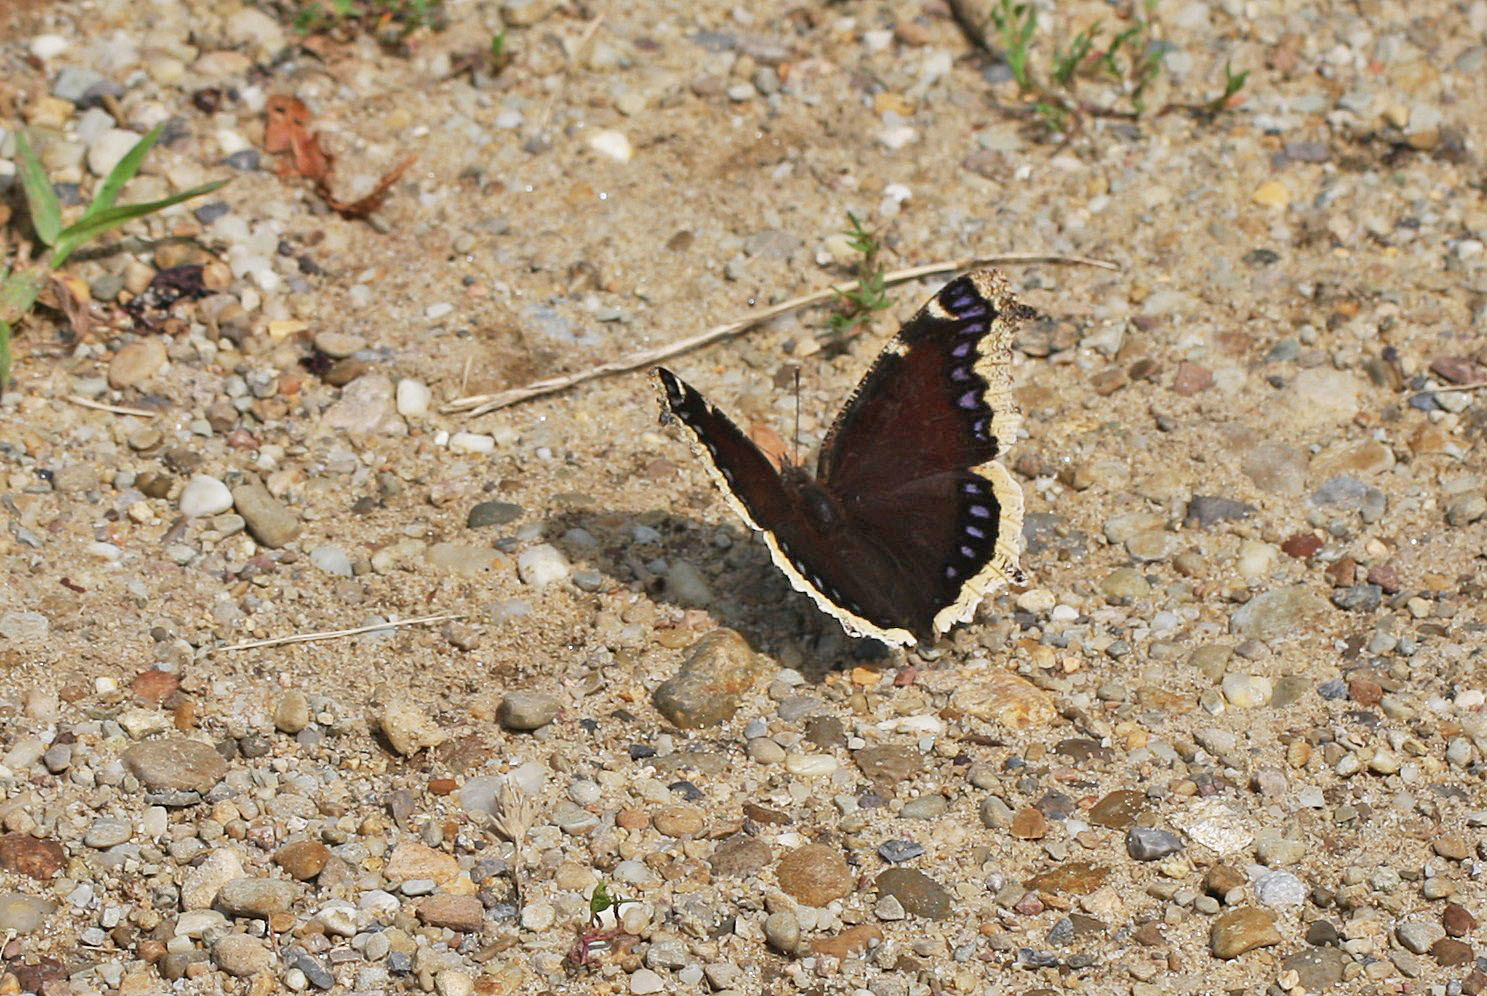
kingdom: Animalia
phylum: Arthropoda
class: Insecta
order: Lepidoptera
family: Nymphalidae
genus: Nymphalis
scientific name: Nymphalis antiopa
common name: Camberwell beauty
